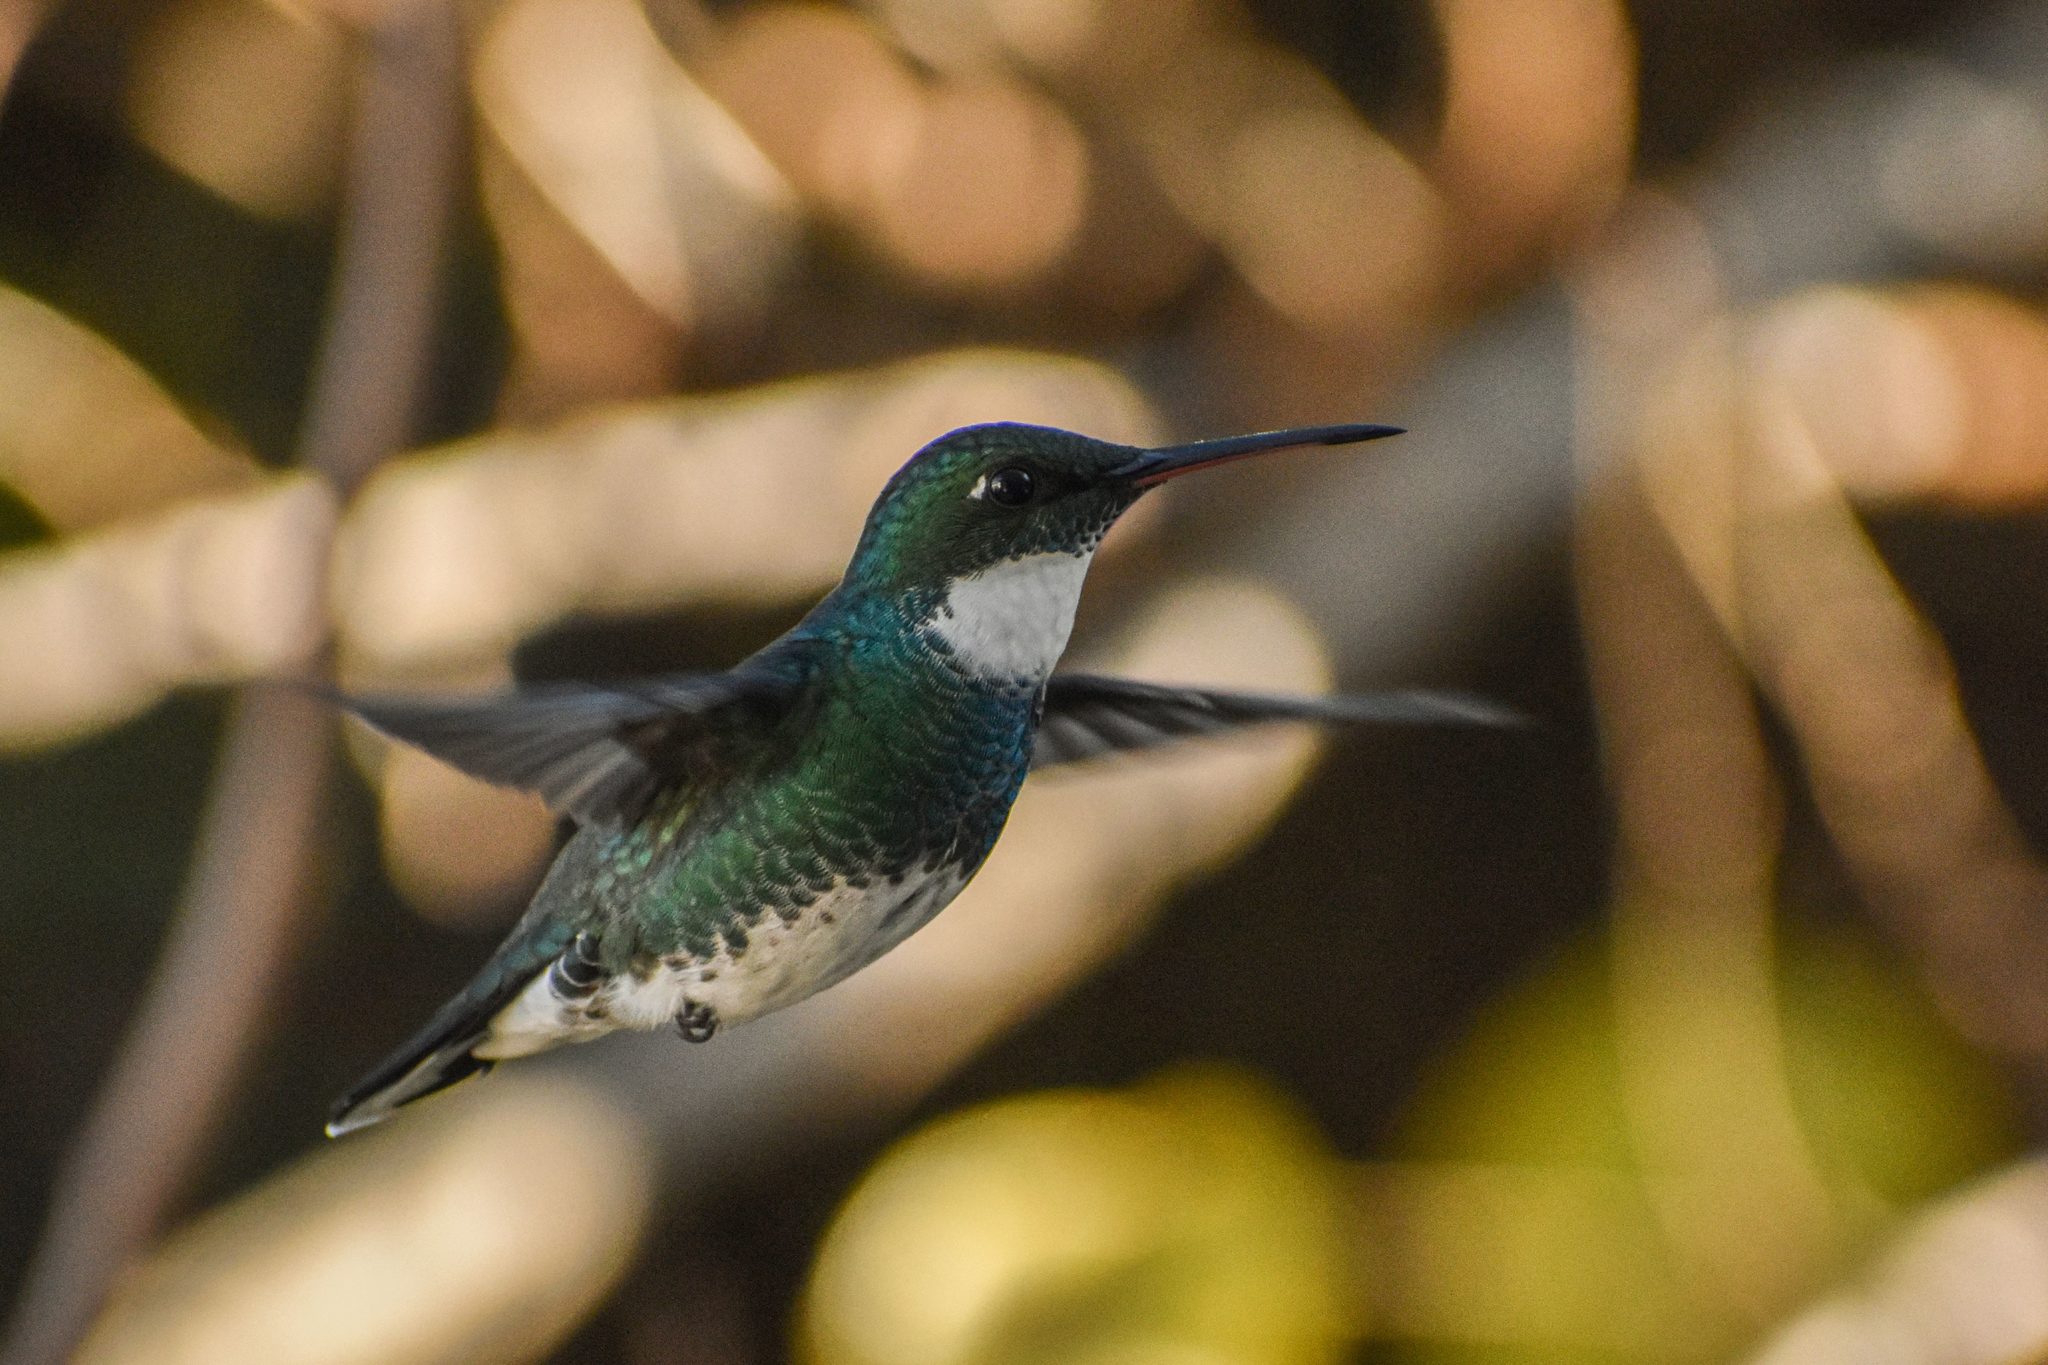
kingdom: Animalia
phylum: Chordata
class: Aves
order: Apodiformes
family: Trochilidae
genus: Leucochloris
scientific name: Leucochloris albicollis
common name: White-throated hummingbird
